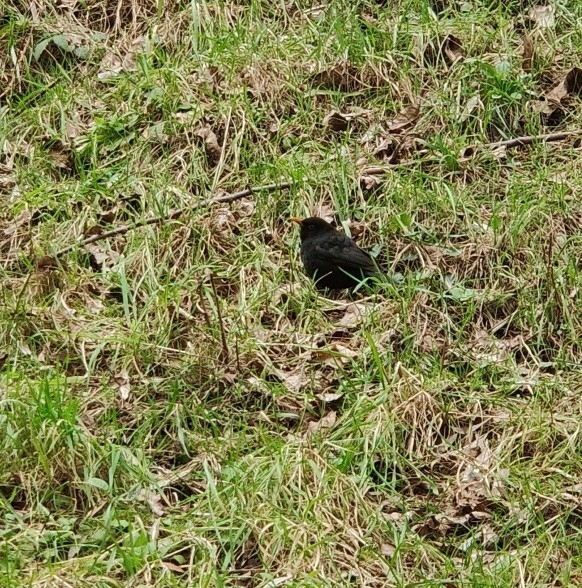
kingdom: Animalia
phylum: Chordata
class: Aves
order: Passeriformes
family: Turdidae
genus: Turdus
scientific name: Turdus merula
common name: Common blackbird
